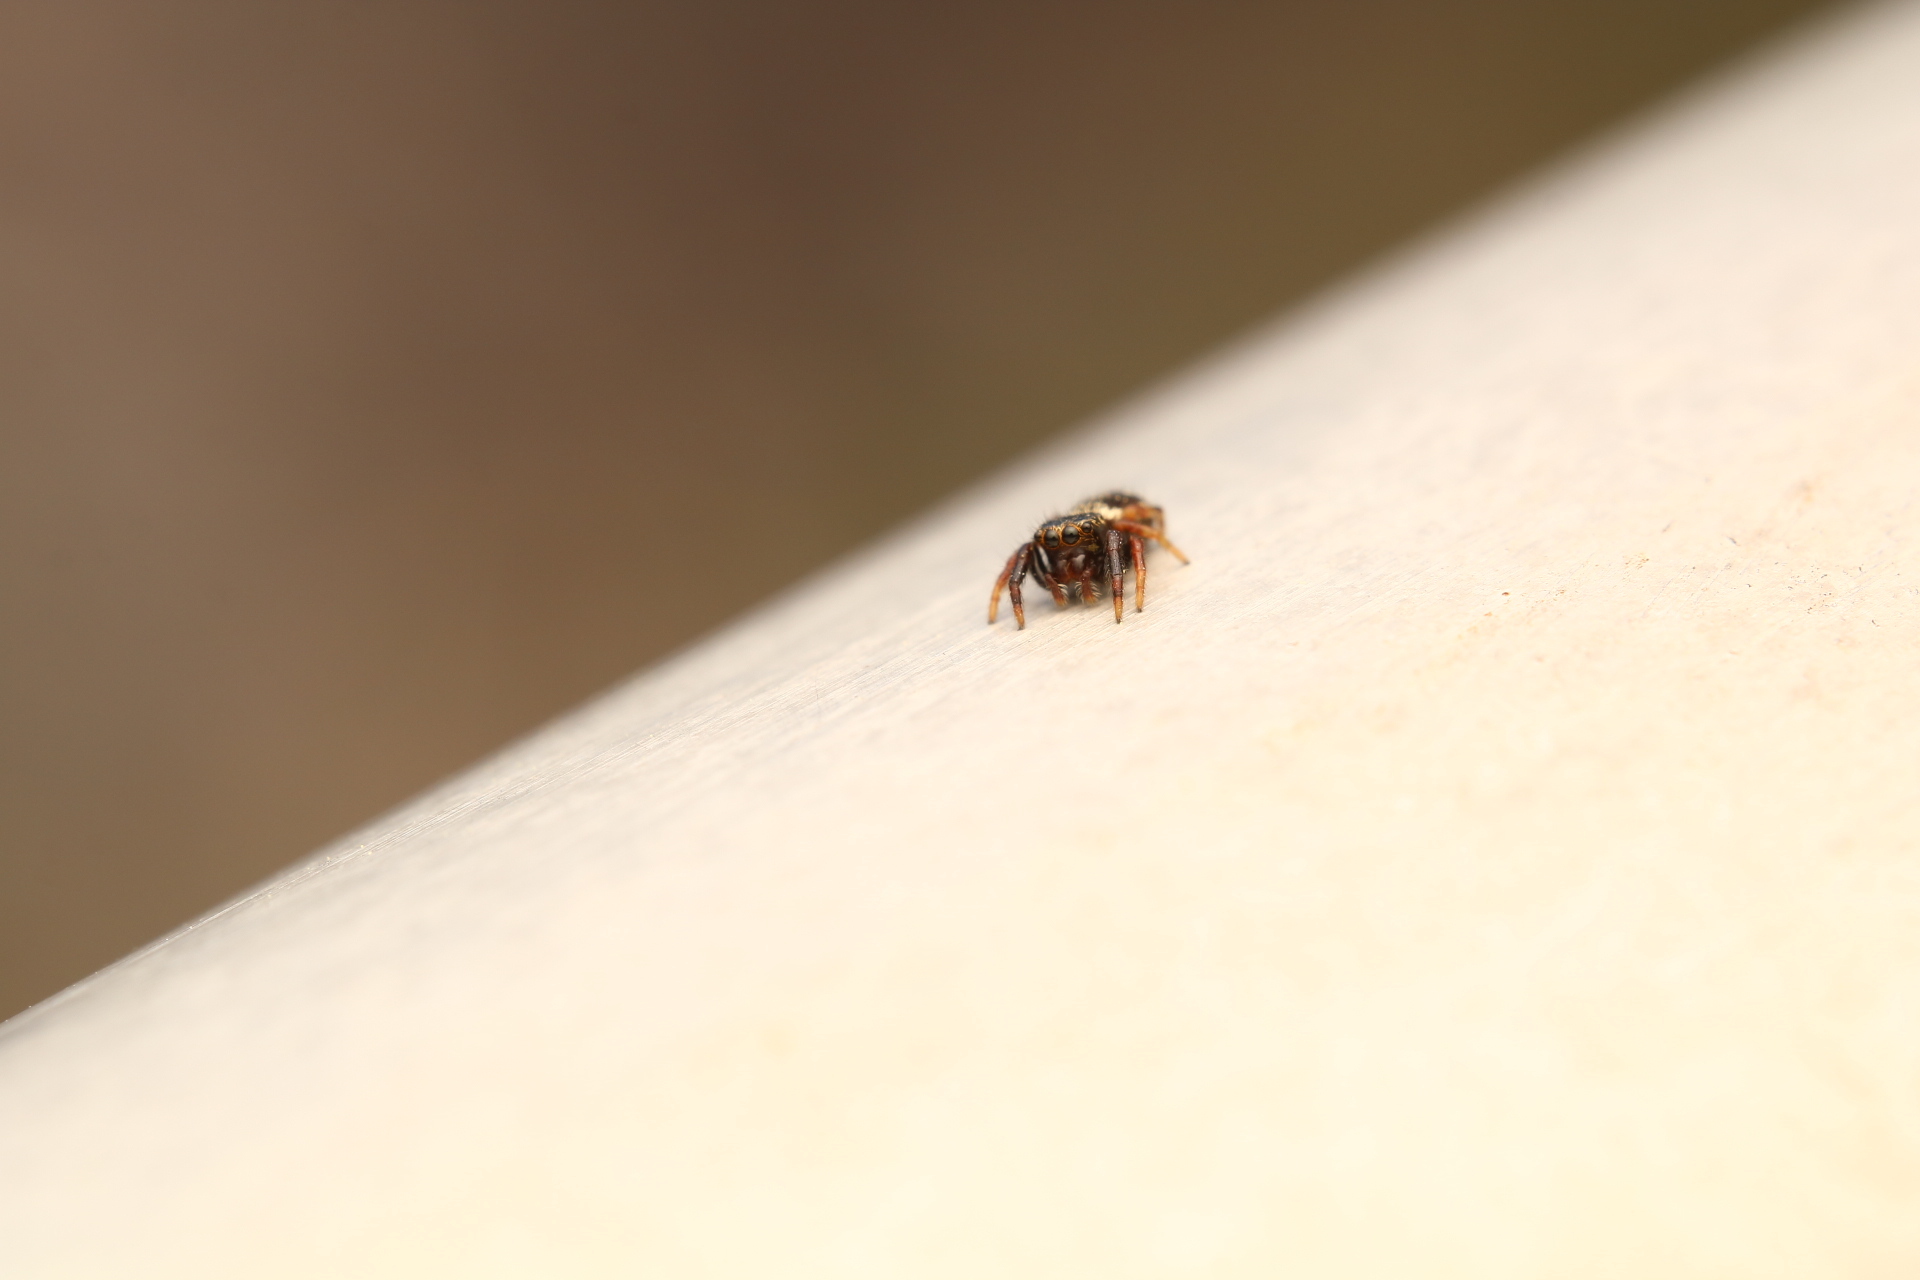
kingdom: Animalia
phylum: Arthropoda
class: Arachnida
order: Araneae
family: Salticidae
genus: Paraphidippus
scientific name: Paraphidippus aurantius
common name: Jumping spiders
